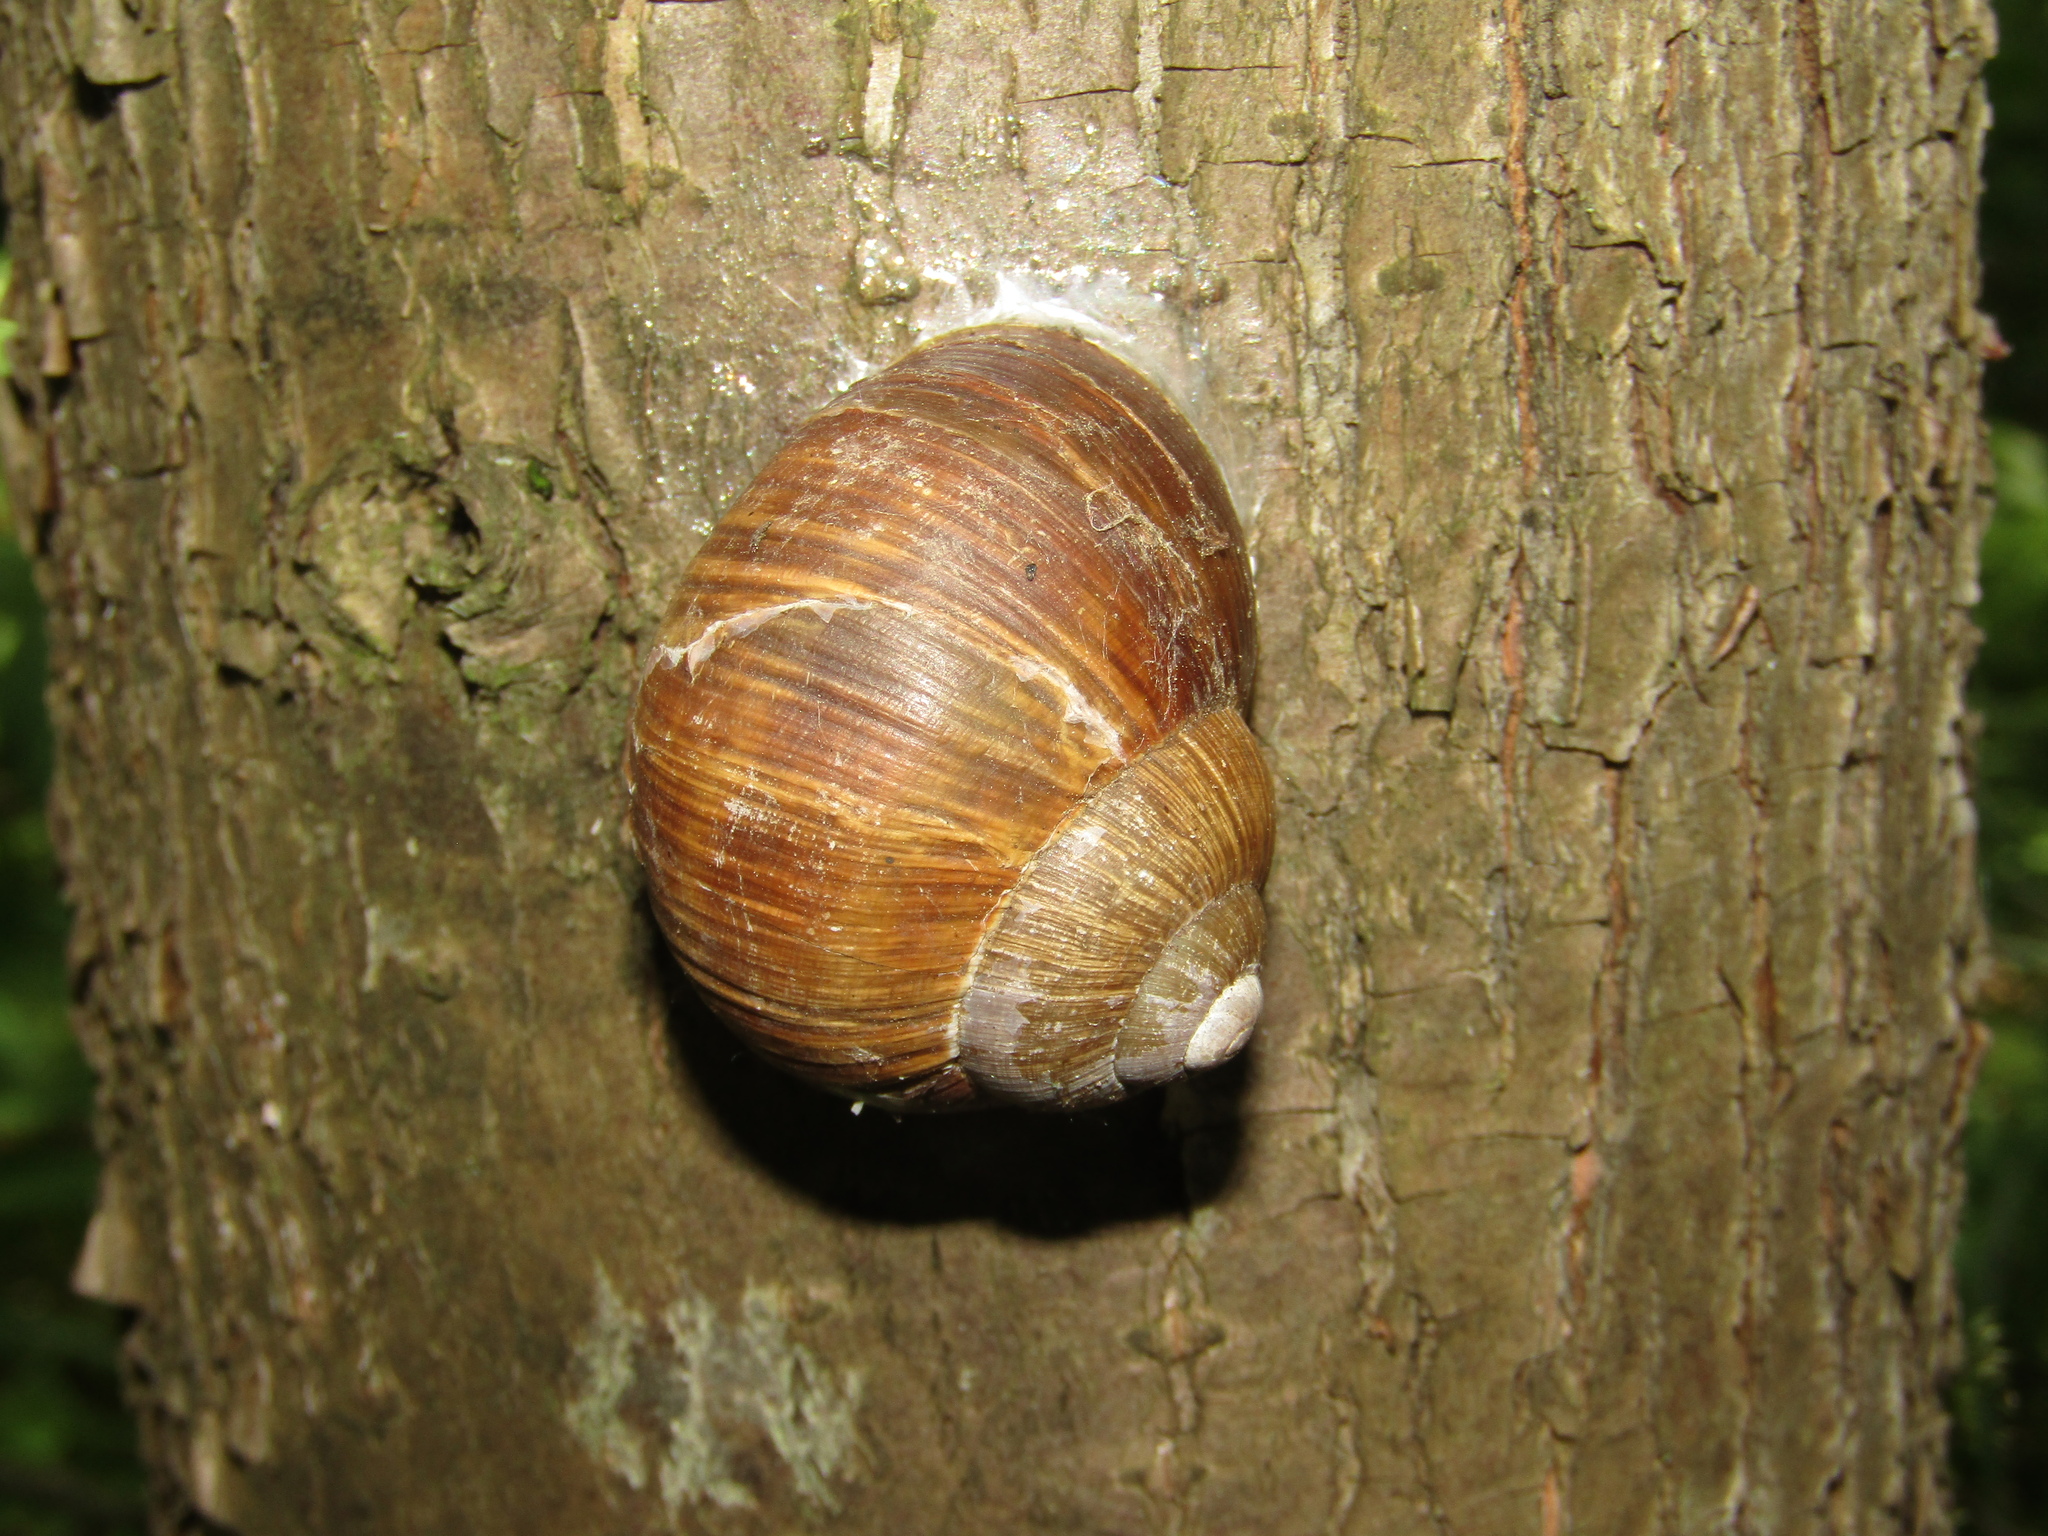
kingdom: Animalia
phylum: Mollusca
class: Gastropoda
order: Stylommatophora
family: Helicidae
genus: Helix
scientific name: Helix pomatia
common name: Roman snail
